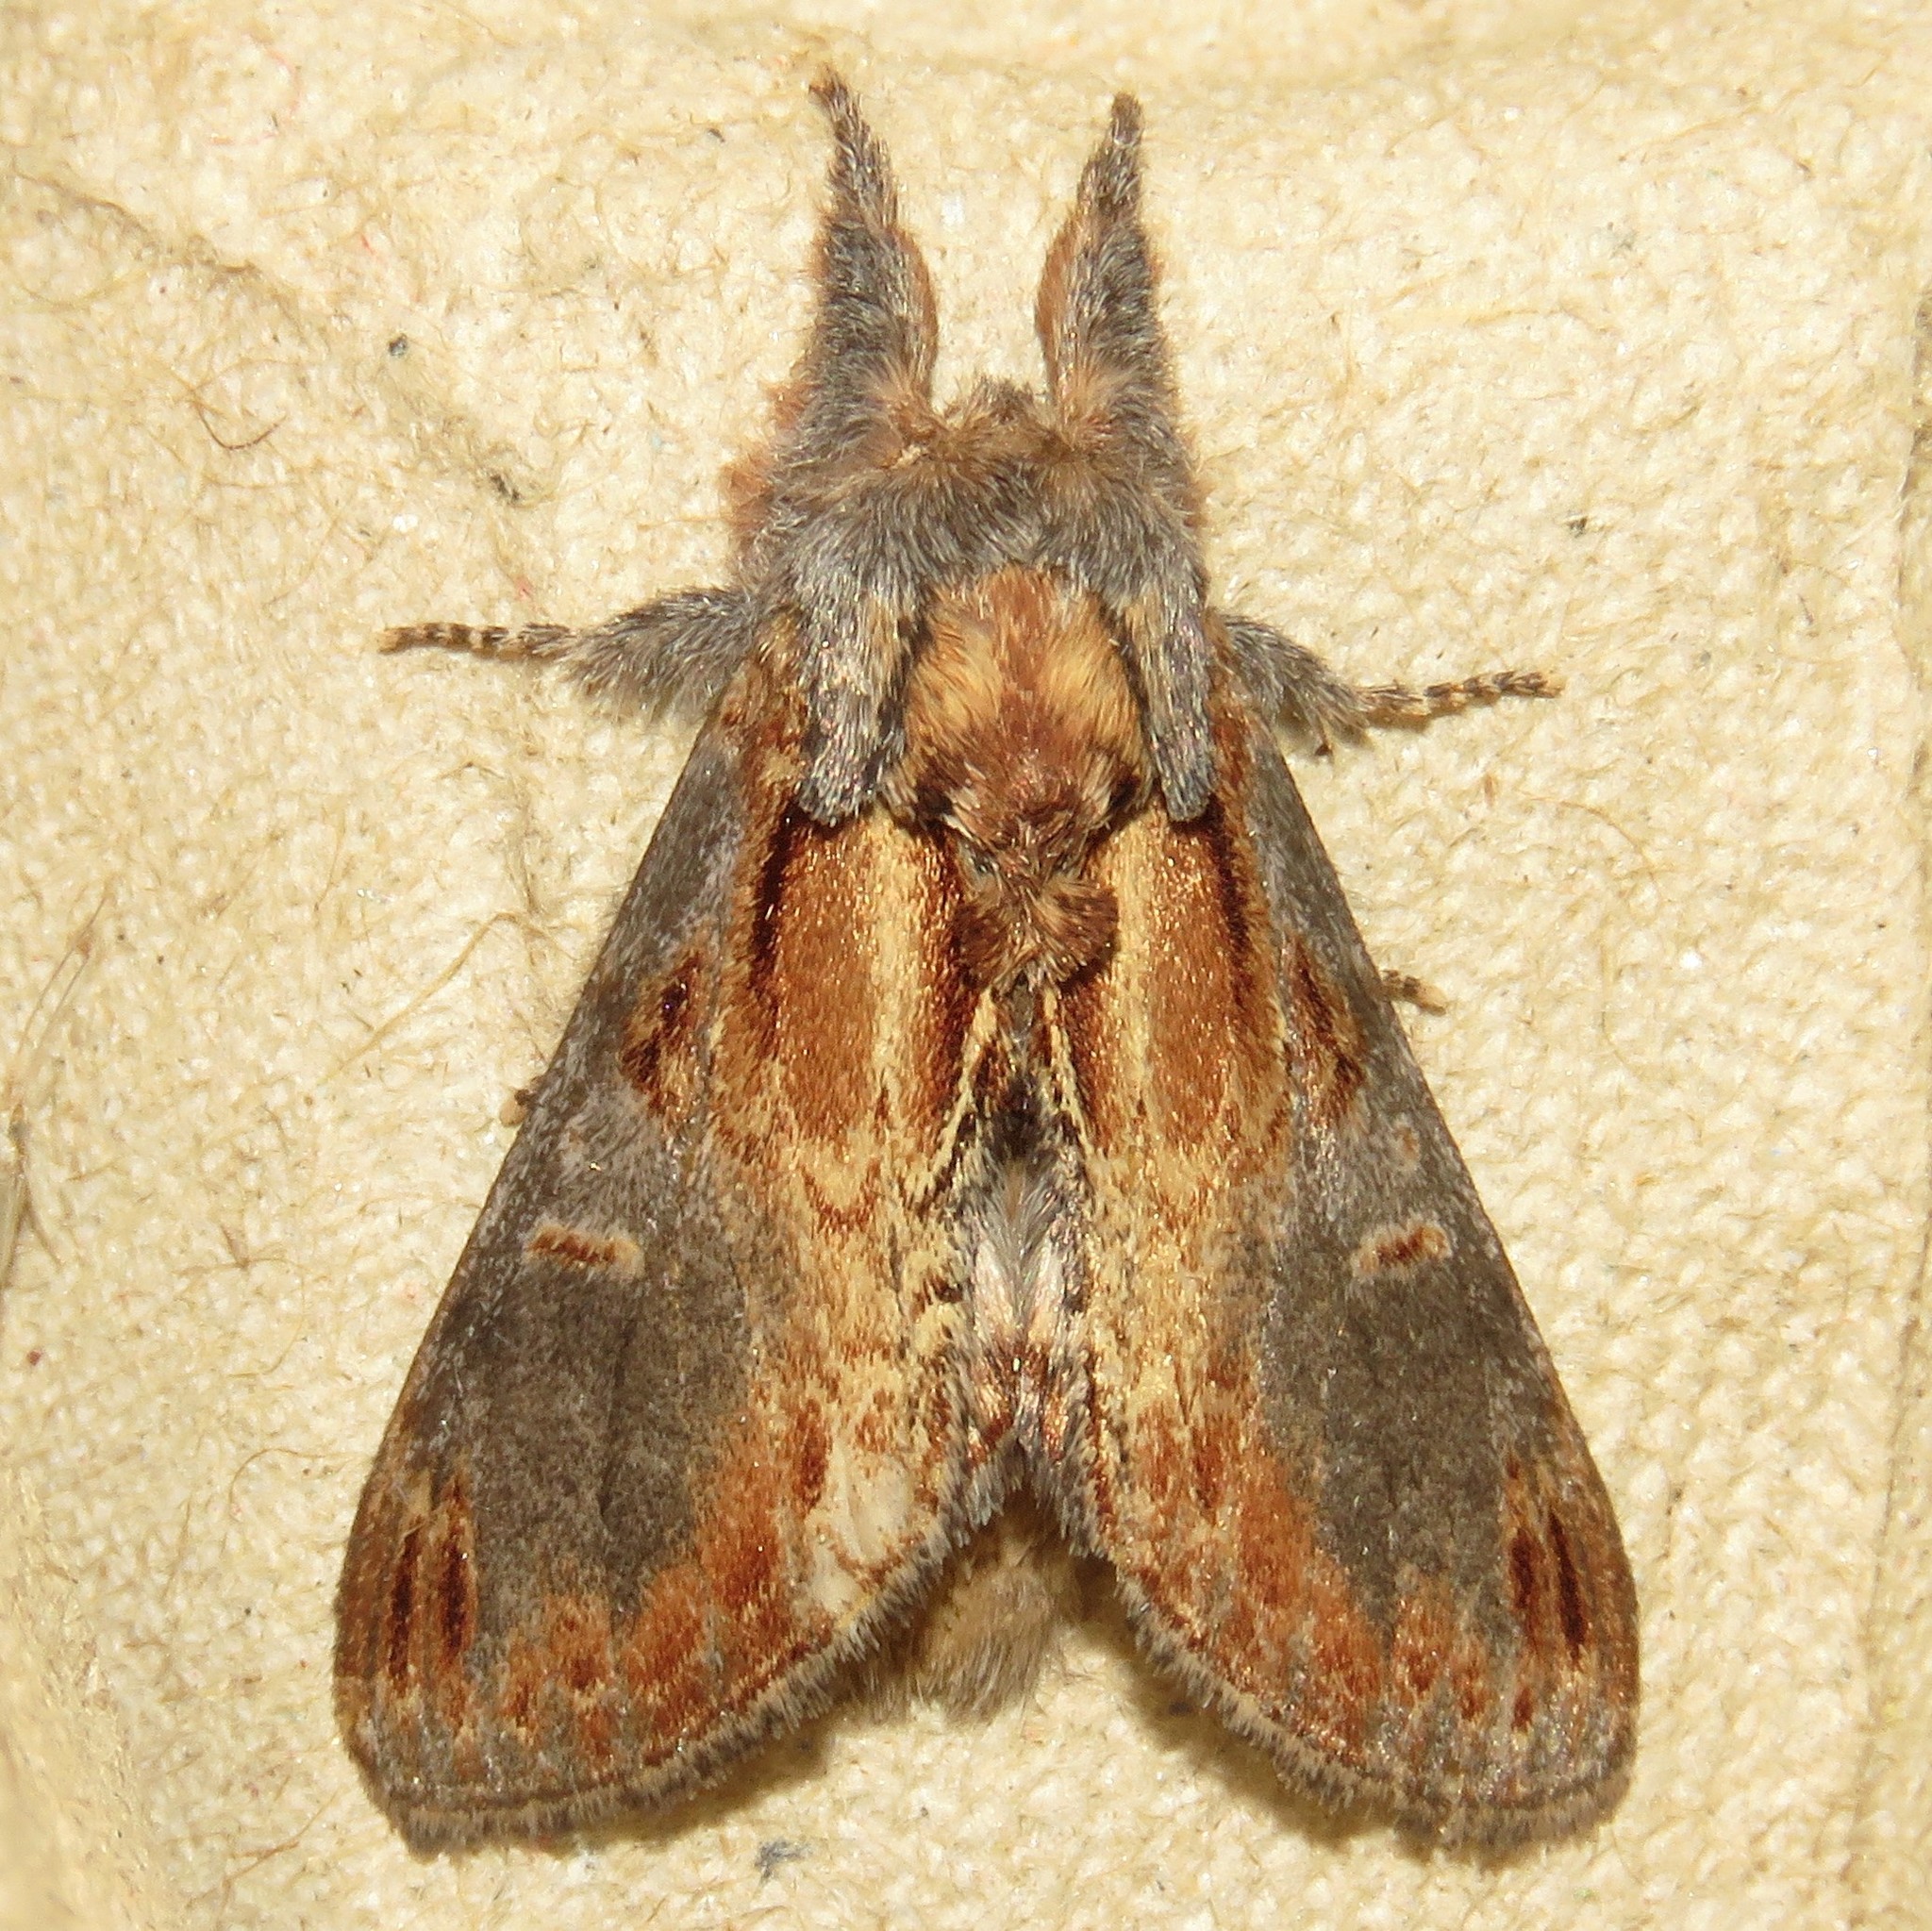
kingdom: Animalia
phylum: Arthropoda
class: Insecta
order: Lepidoptera
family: Notodontidae
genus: Notodonta
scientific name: Notodonta scitipennis
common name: Finned-willow prominent moth
